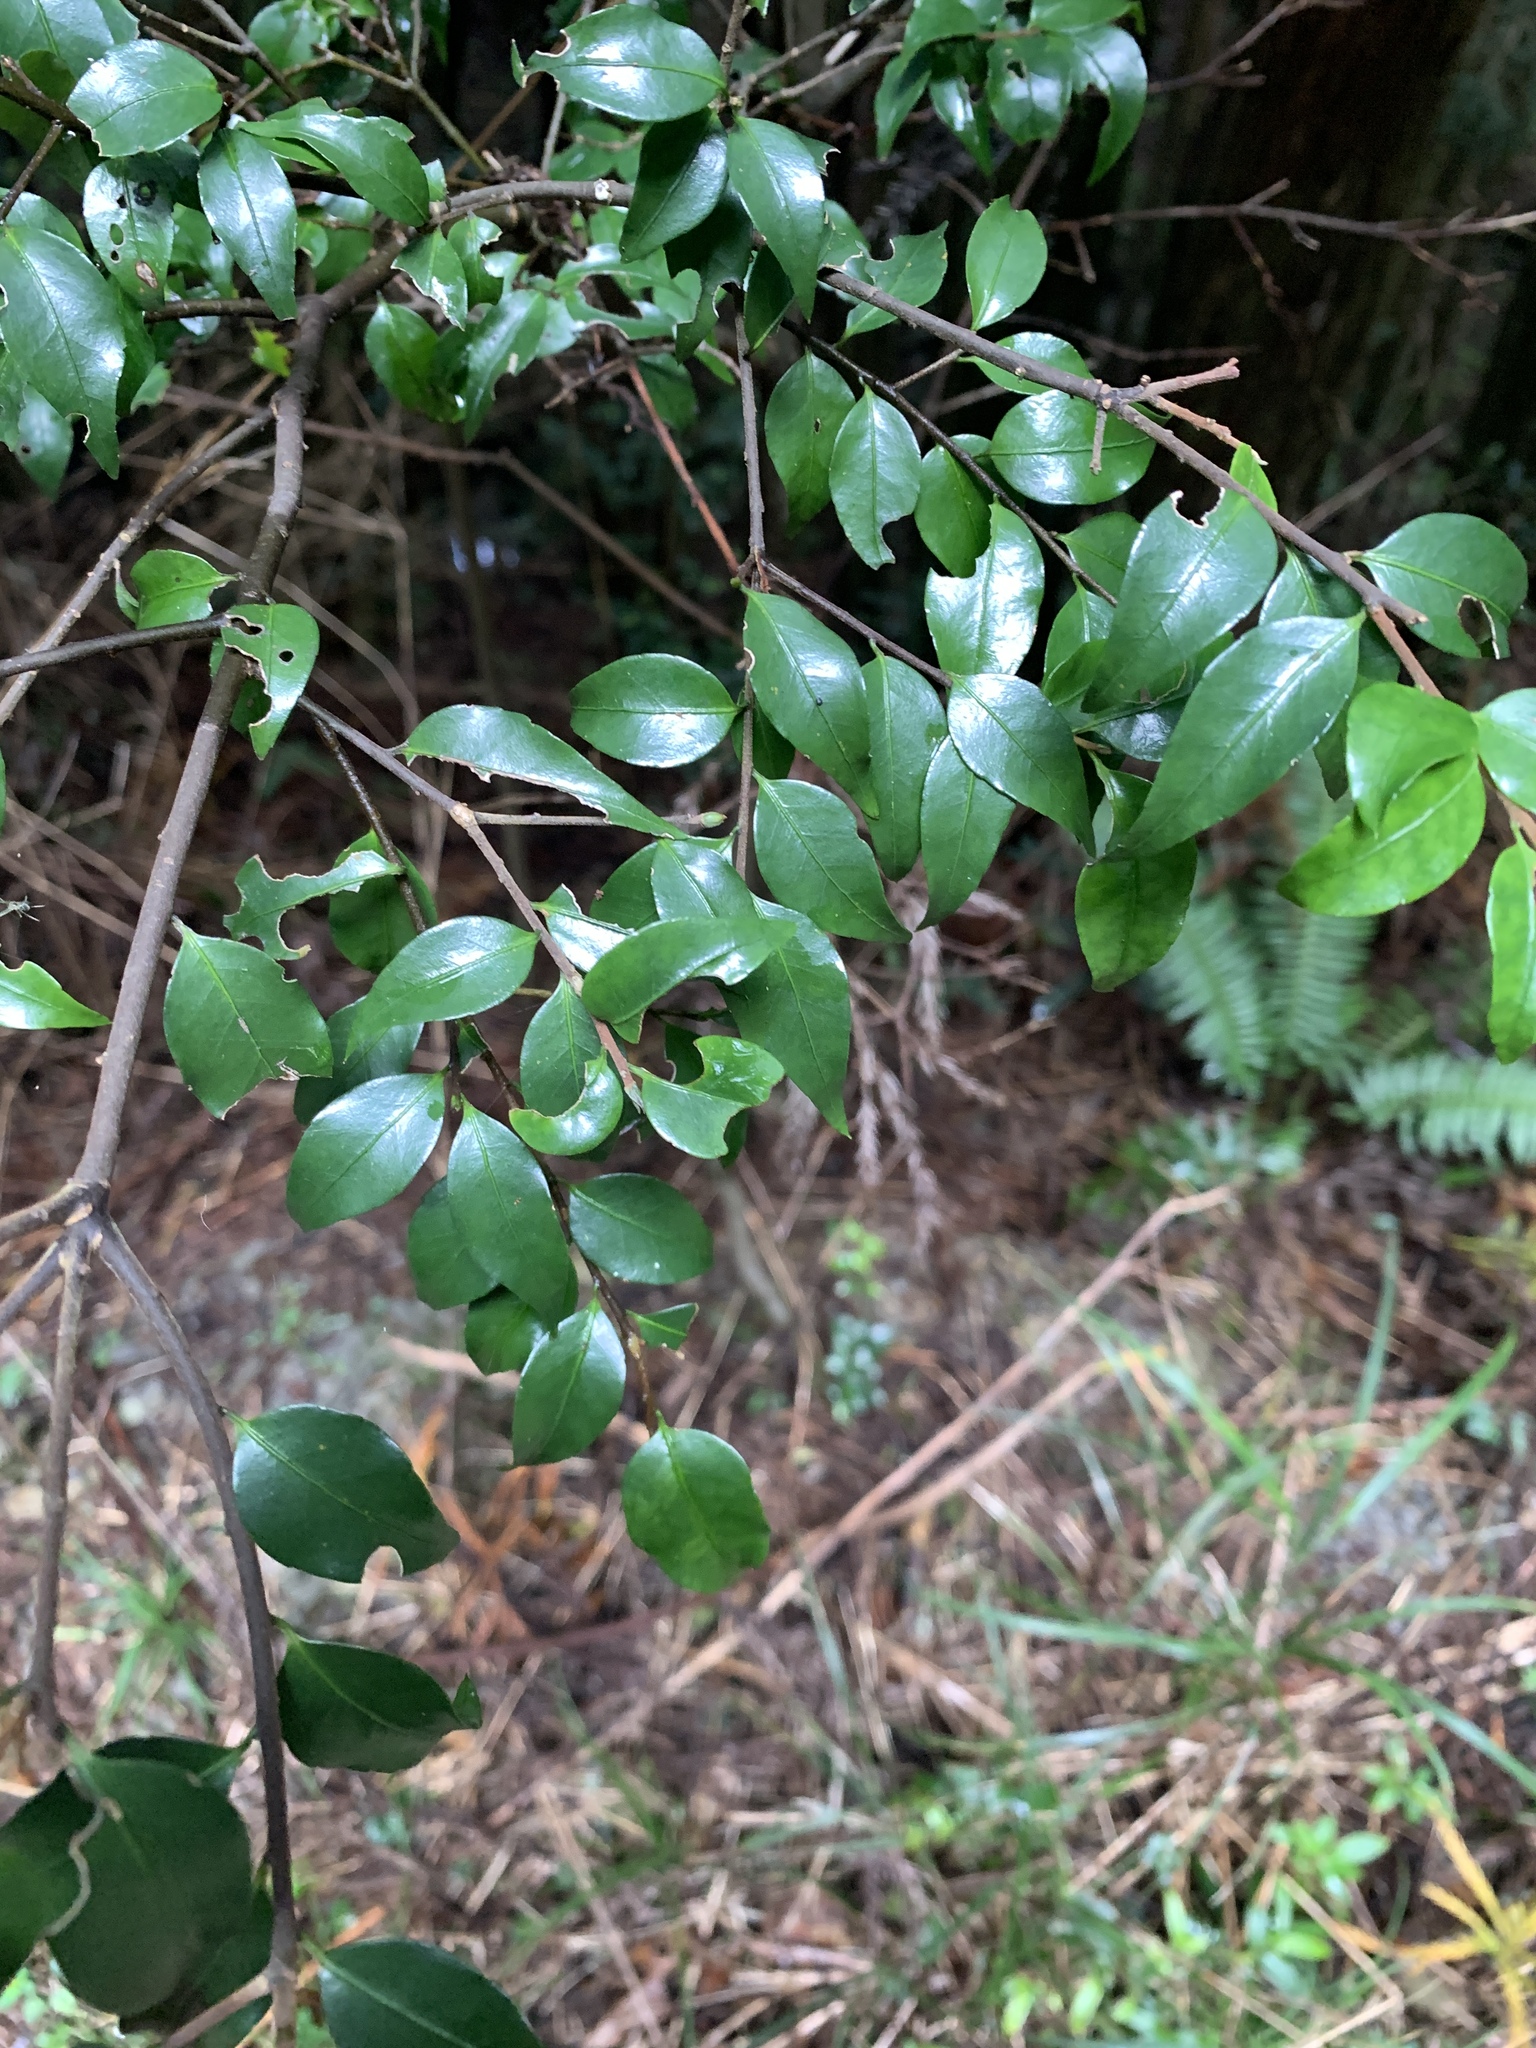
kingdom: Plantae
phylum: Tracheophyta
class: Magnoliopsida
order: Ericales
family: Symplocaceae
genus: Symplocos
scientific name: Symplocos anomala
